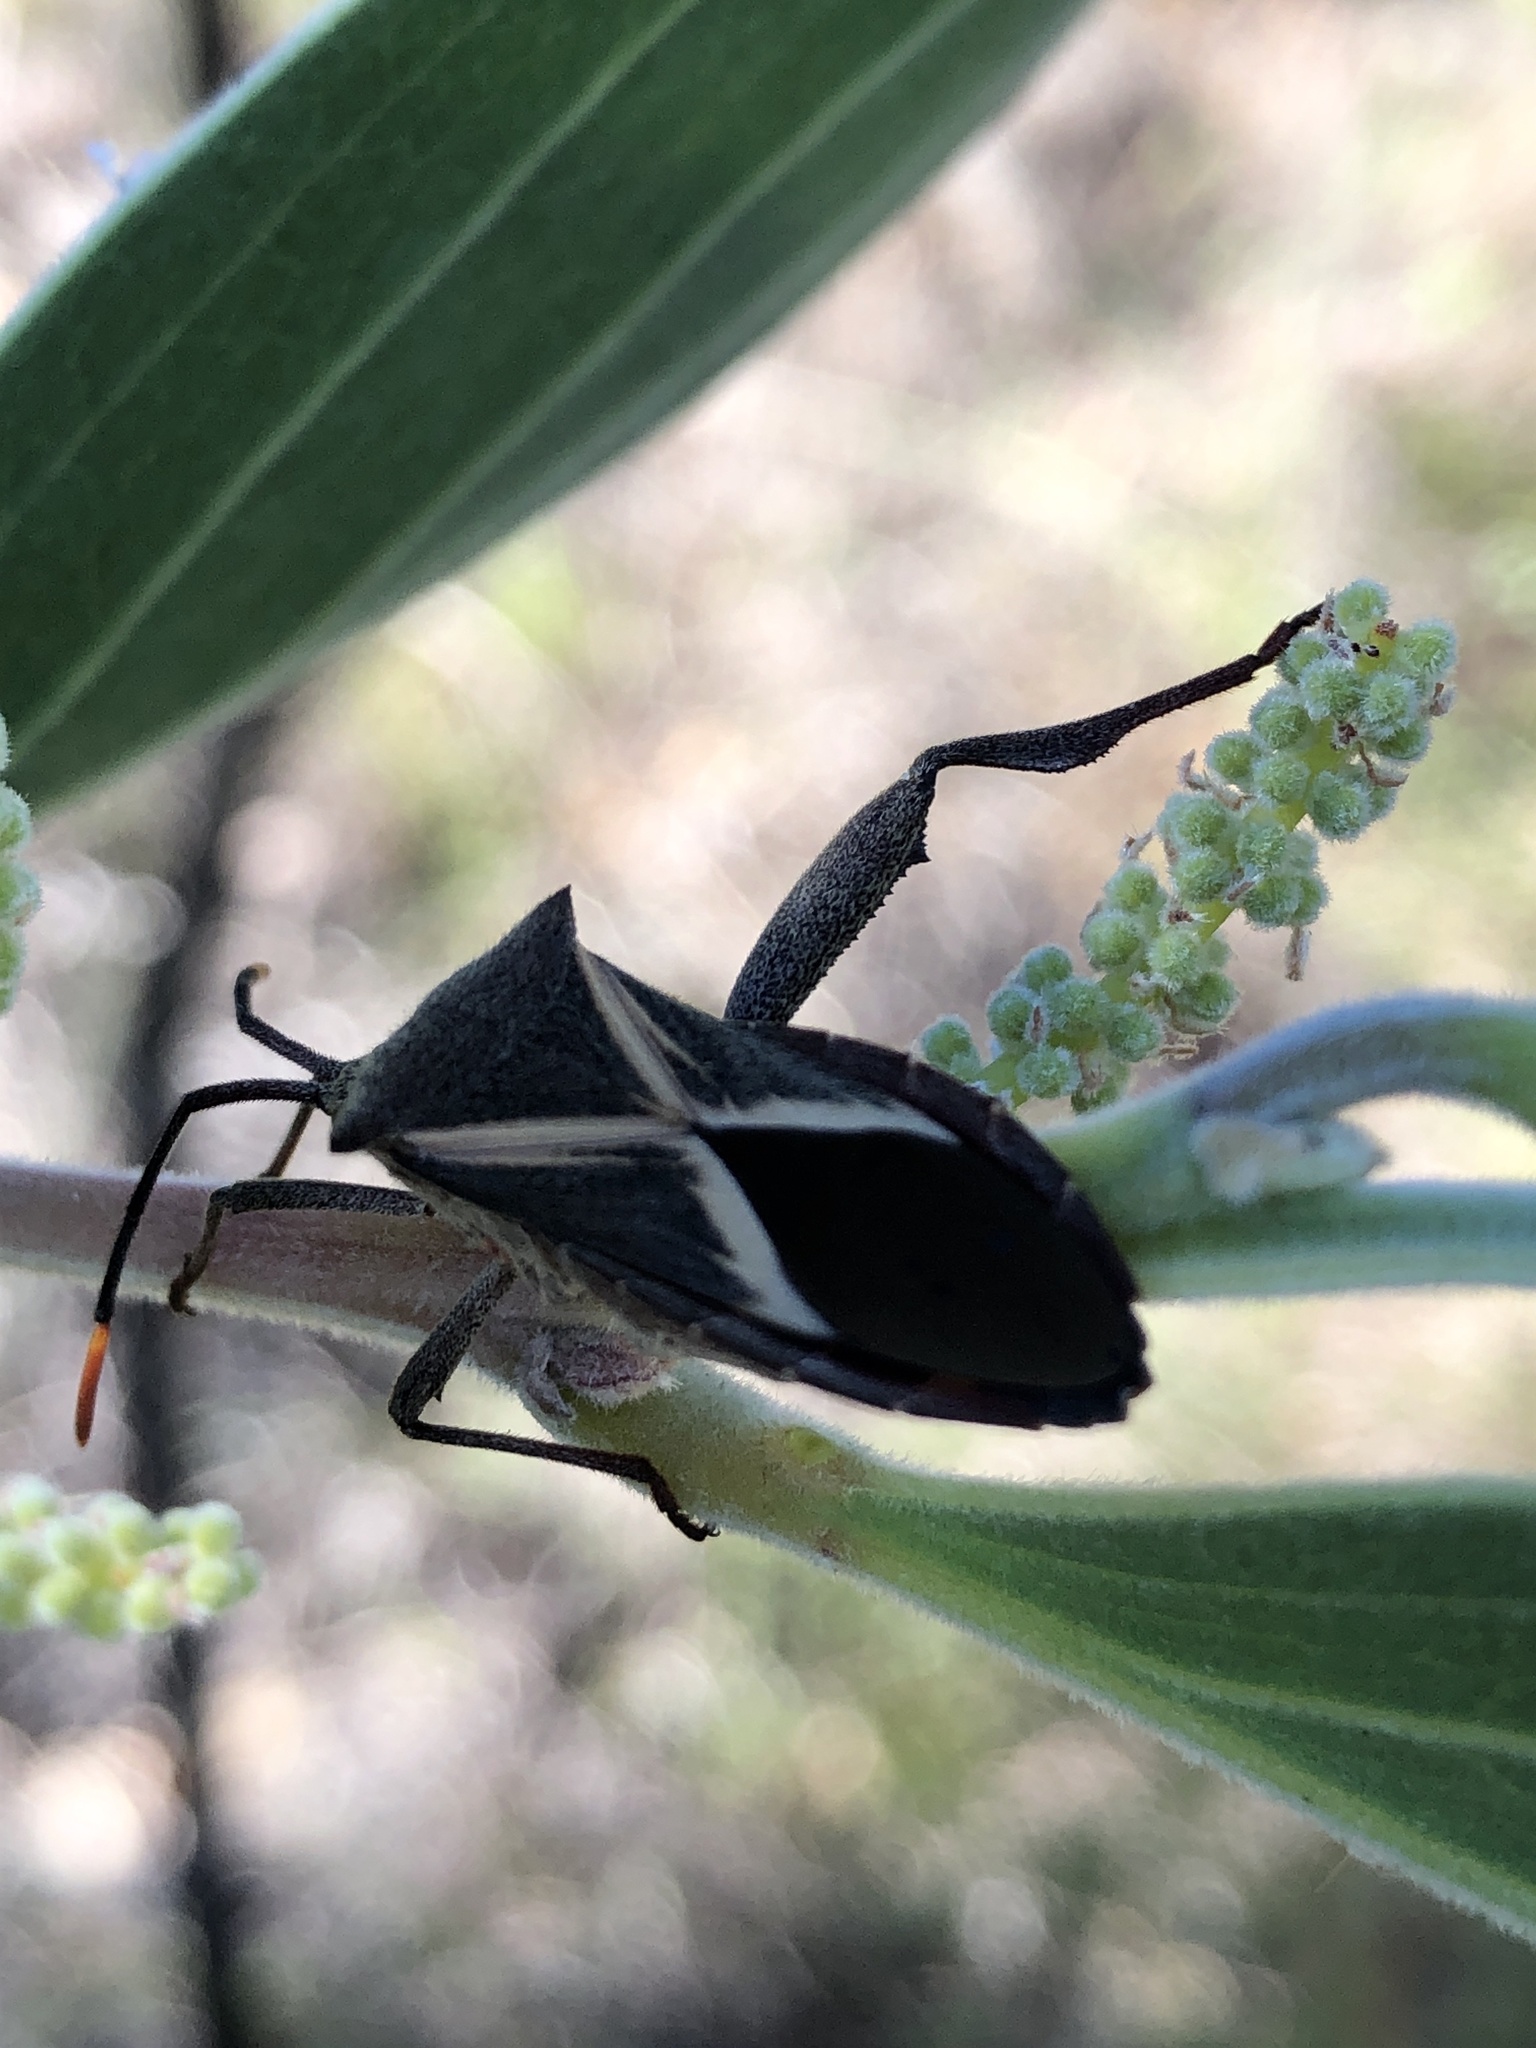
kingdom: Animalia
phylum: Arthropoda
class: Insecta
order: Hemiptera
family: Coreidae
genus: Mictis
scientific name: Mictis profana
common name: Crusader bug
